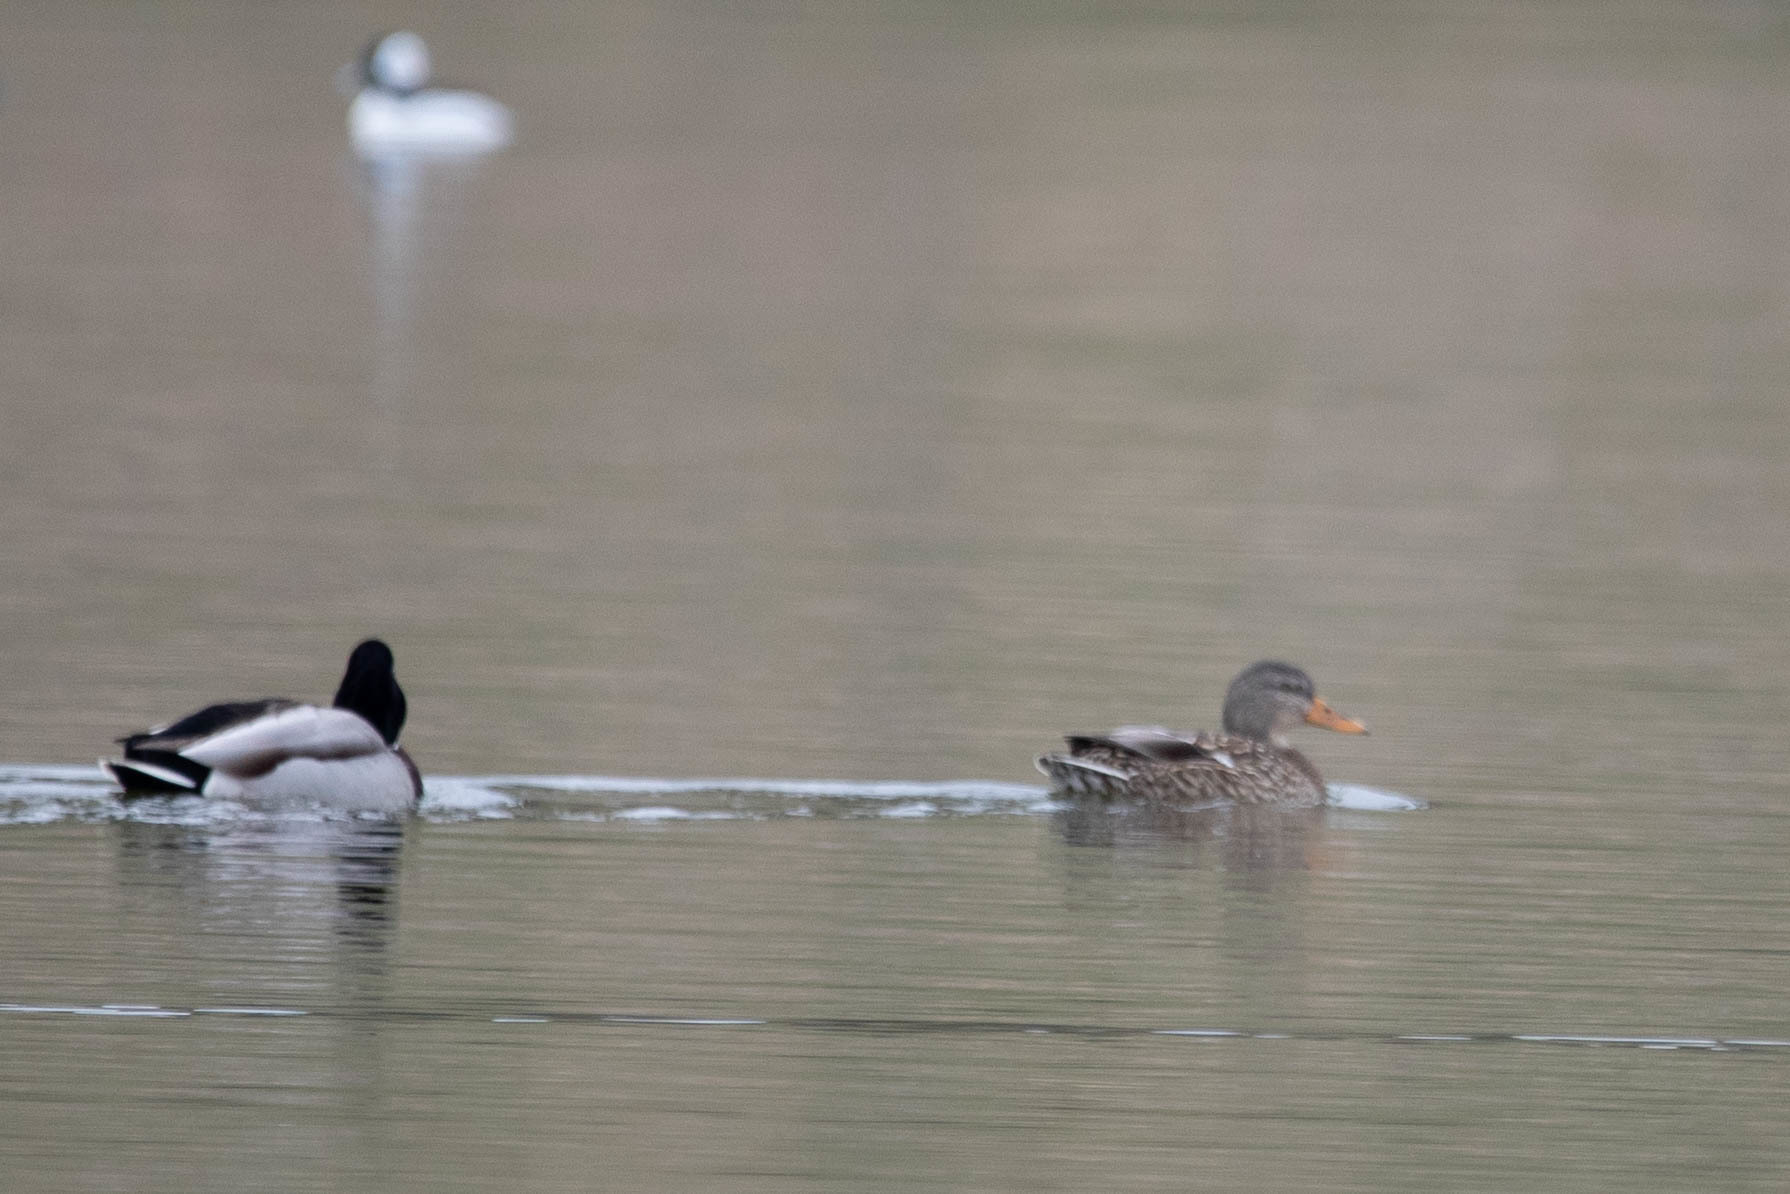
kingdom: Animalia
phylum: Chordata
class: Aves
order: Anseriformes
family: Anatidae
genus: Anas
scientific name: Anas platyrhynchos
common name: Mallard
